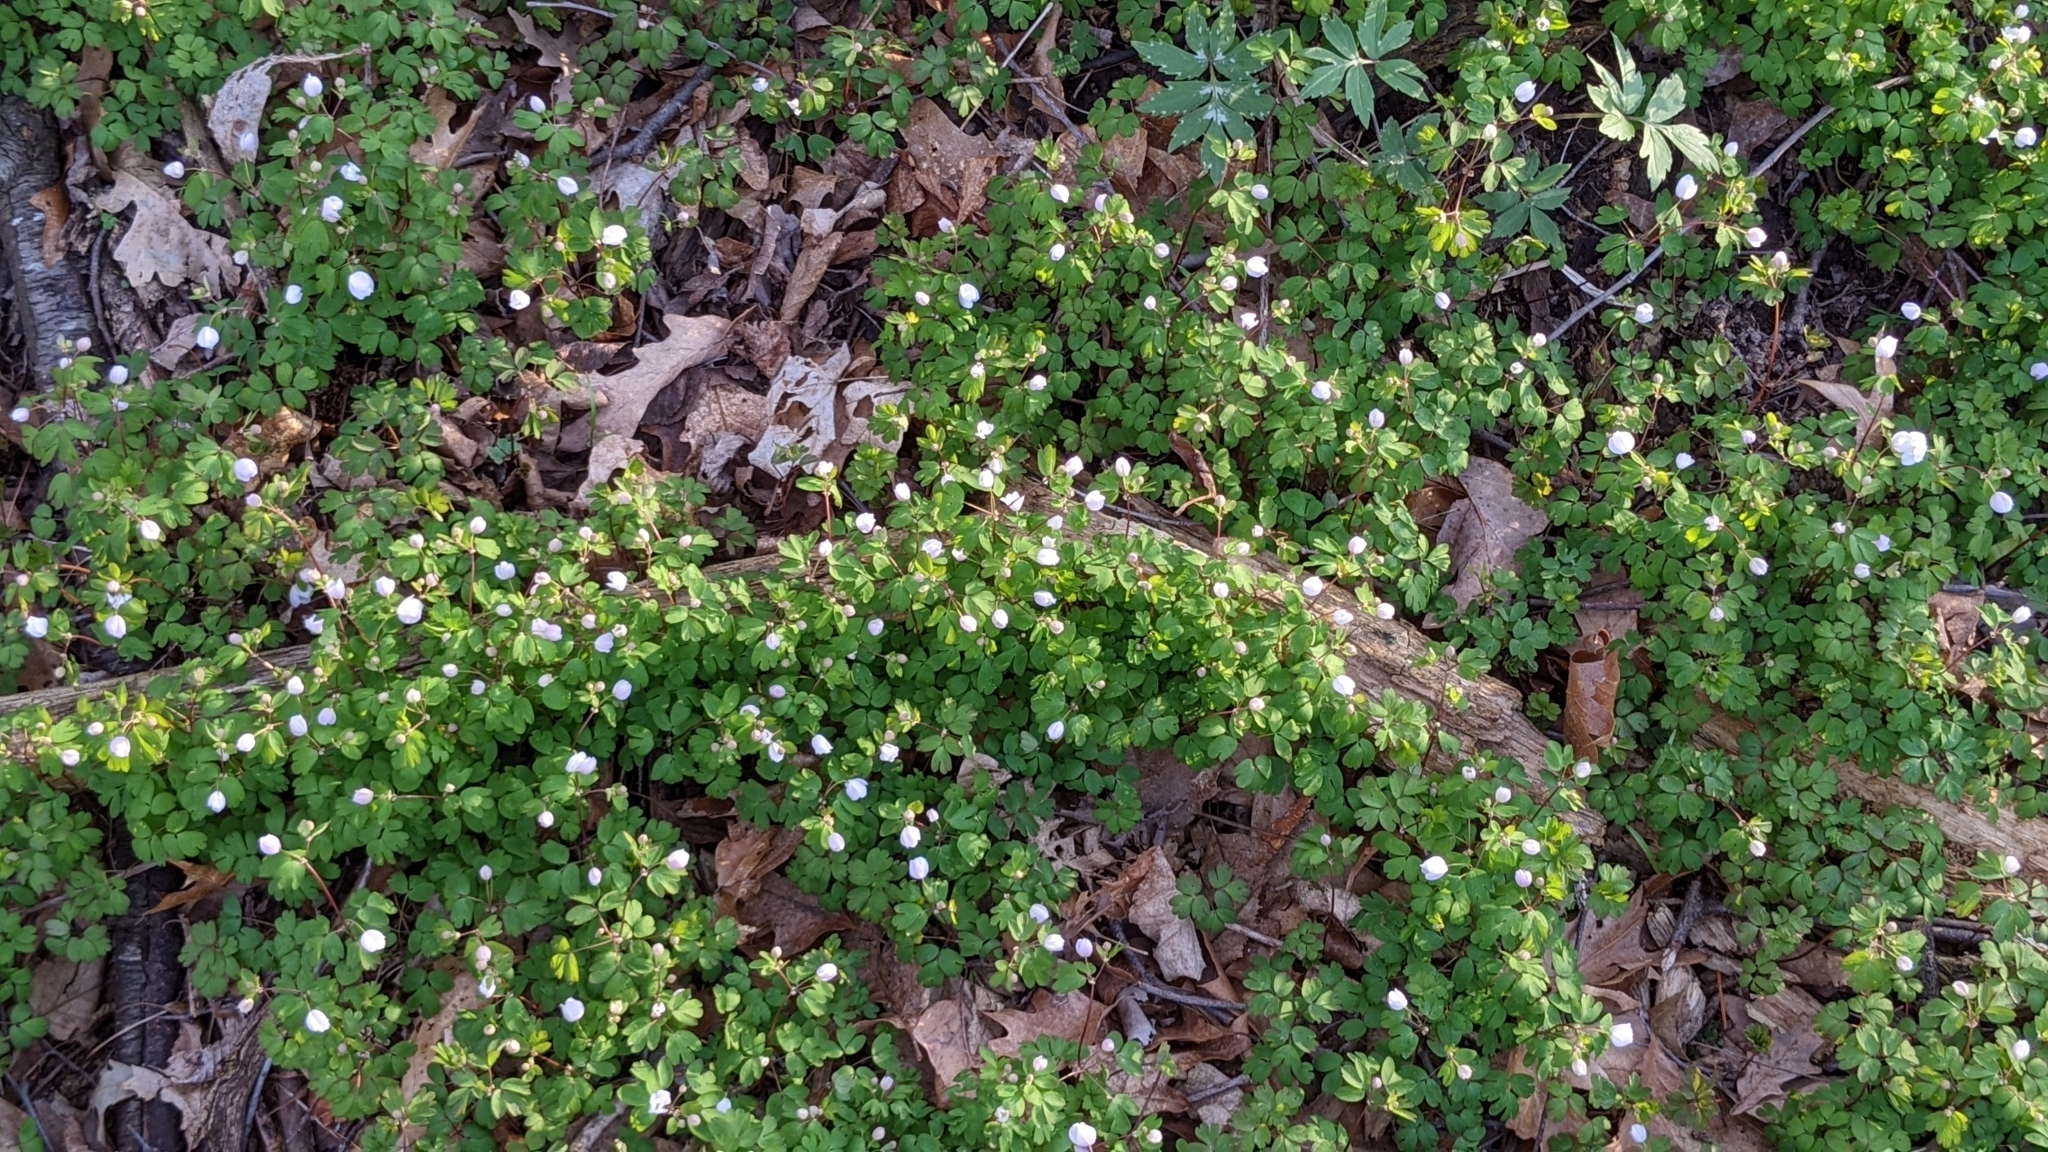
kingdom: Plantae
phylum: Tracheophyta
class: Magnoliopsida
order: Ranunculales
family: Ranunculaceae
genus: Enemion
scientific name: Enemion biternatum
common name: Eastern false rue-anemone
